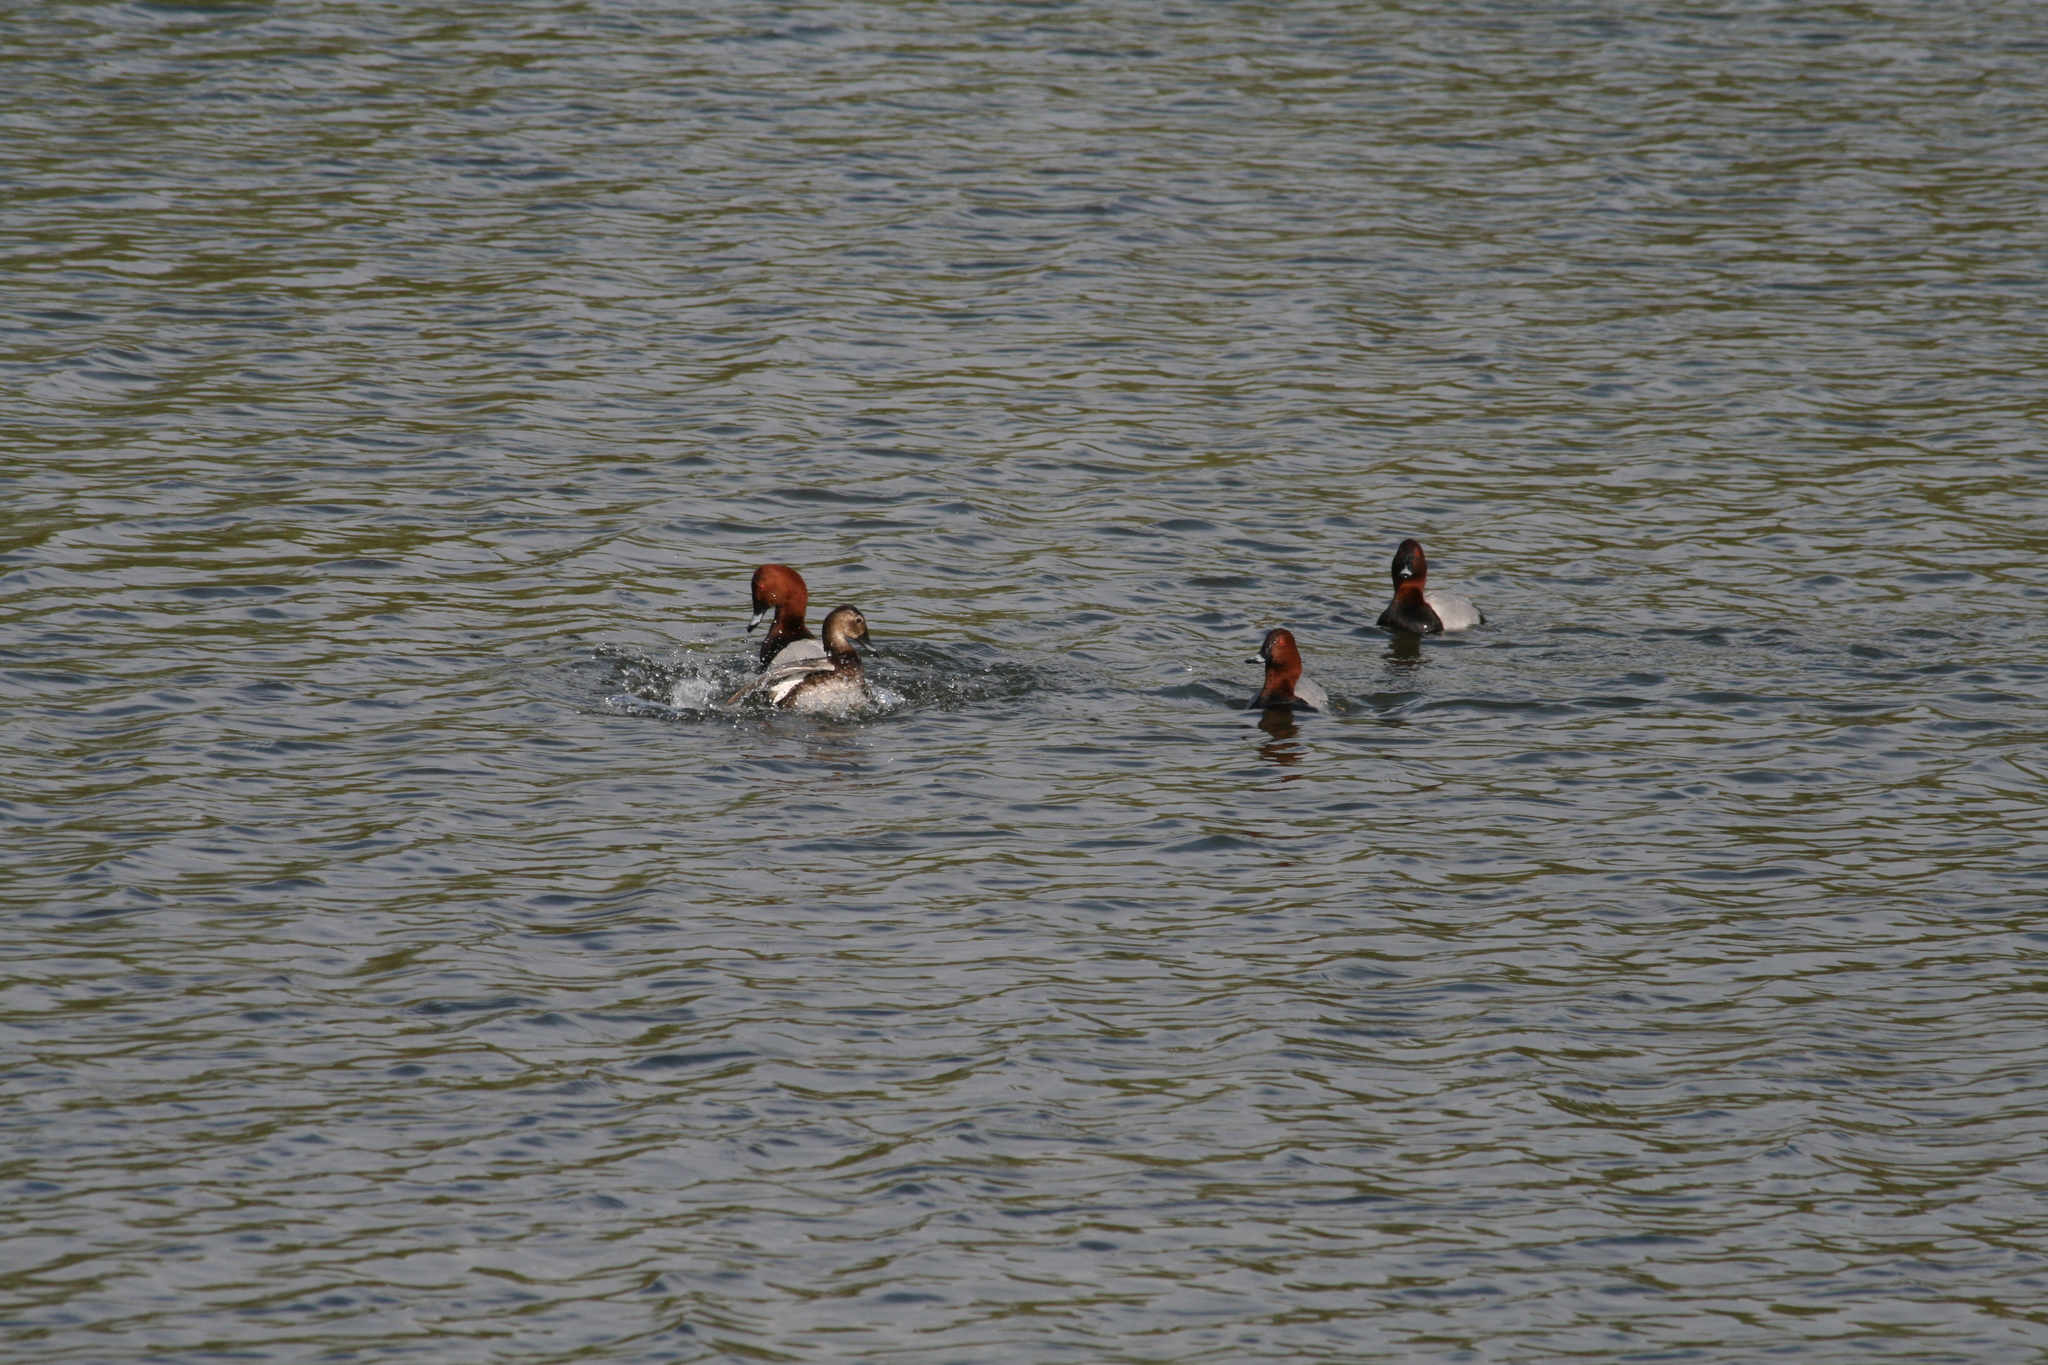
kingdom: Animalia
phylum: Chordata
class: Aves
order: Anseriformes
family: Anatidae
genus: Aythya
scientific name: Aythya ferina
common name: Common pochard
